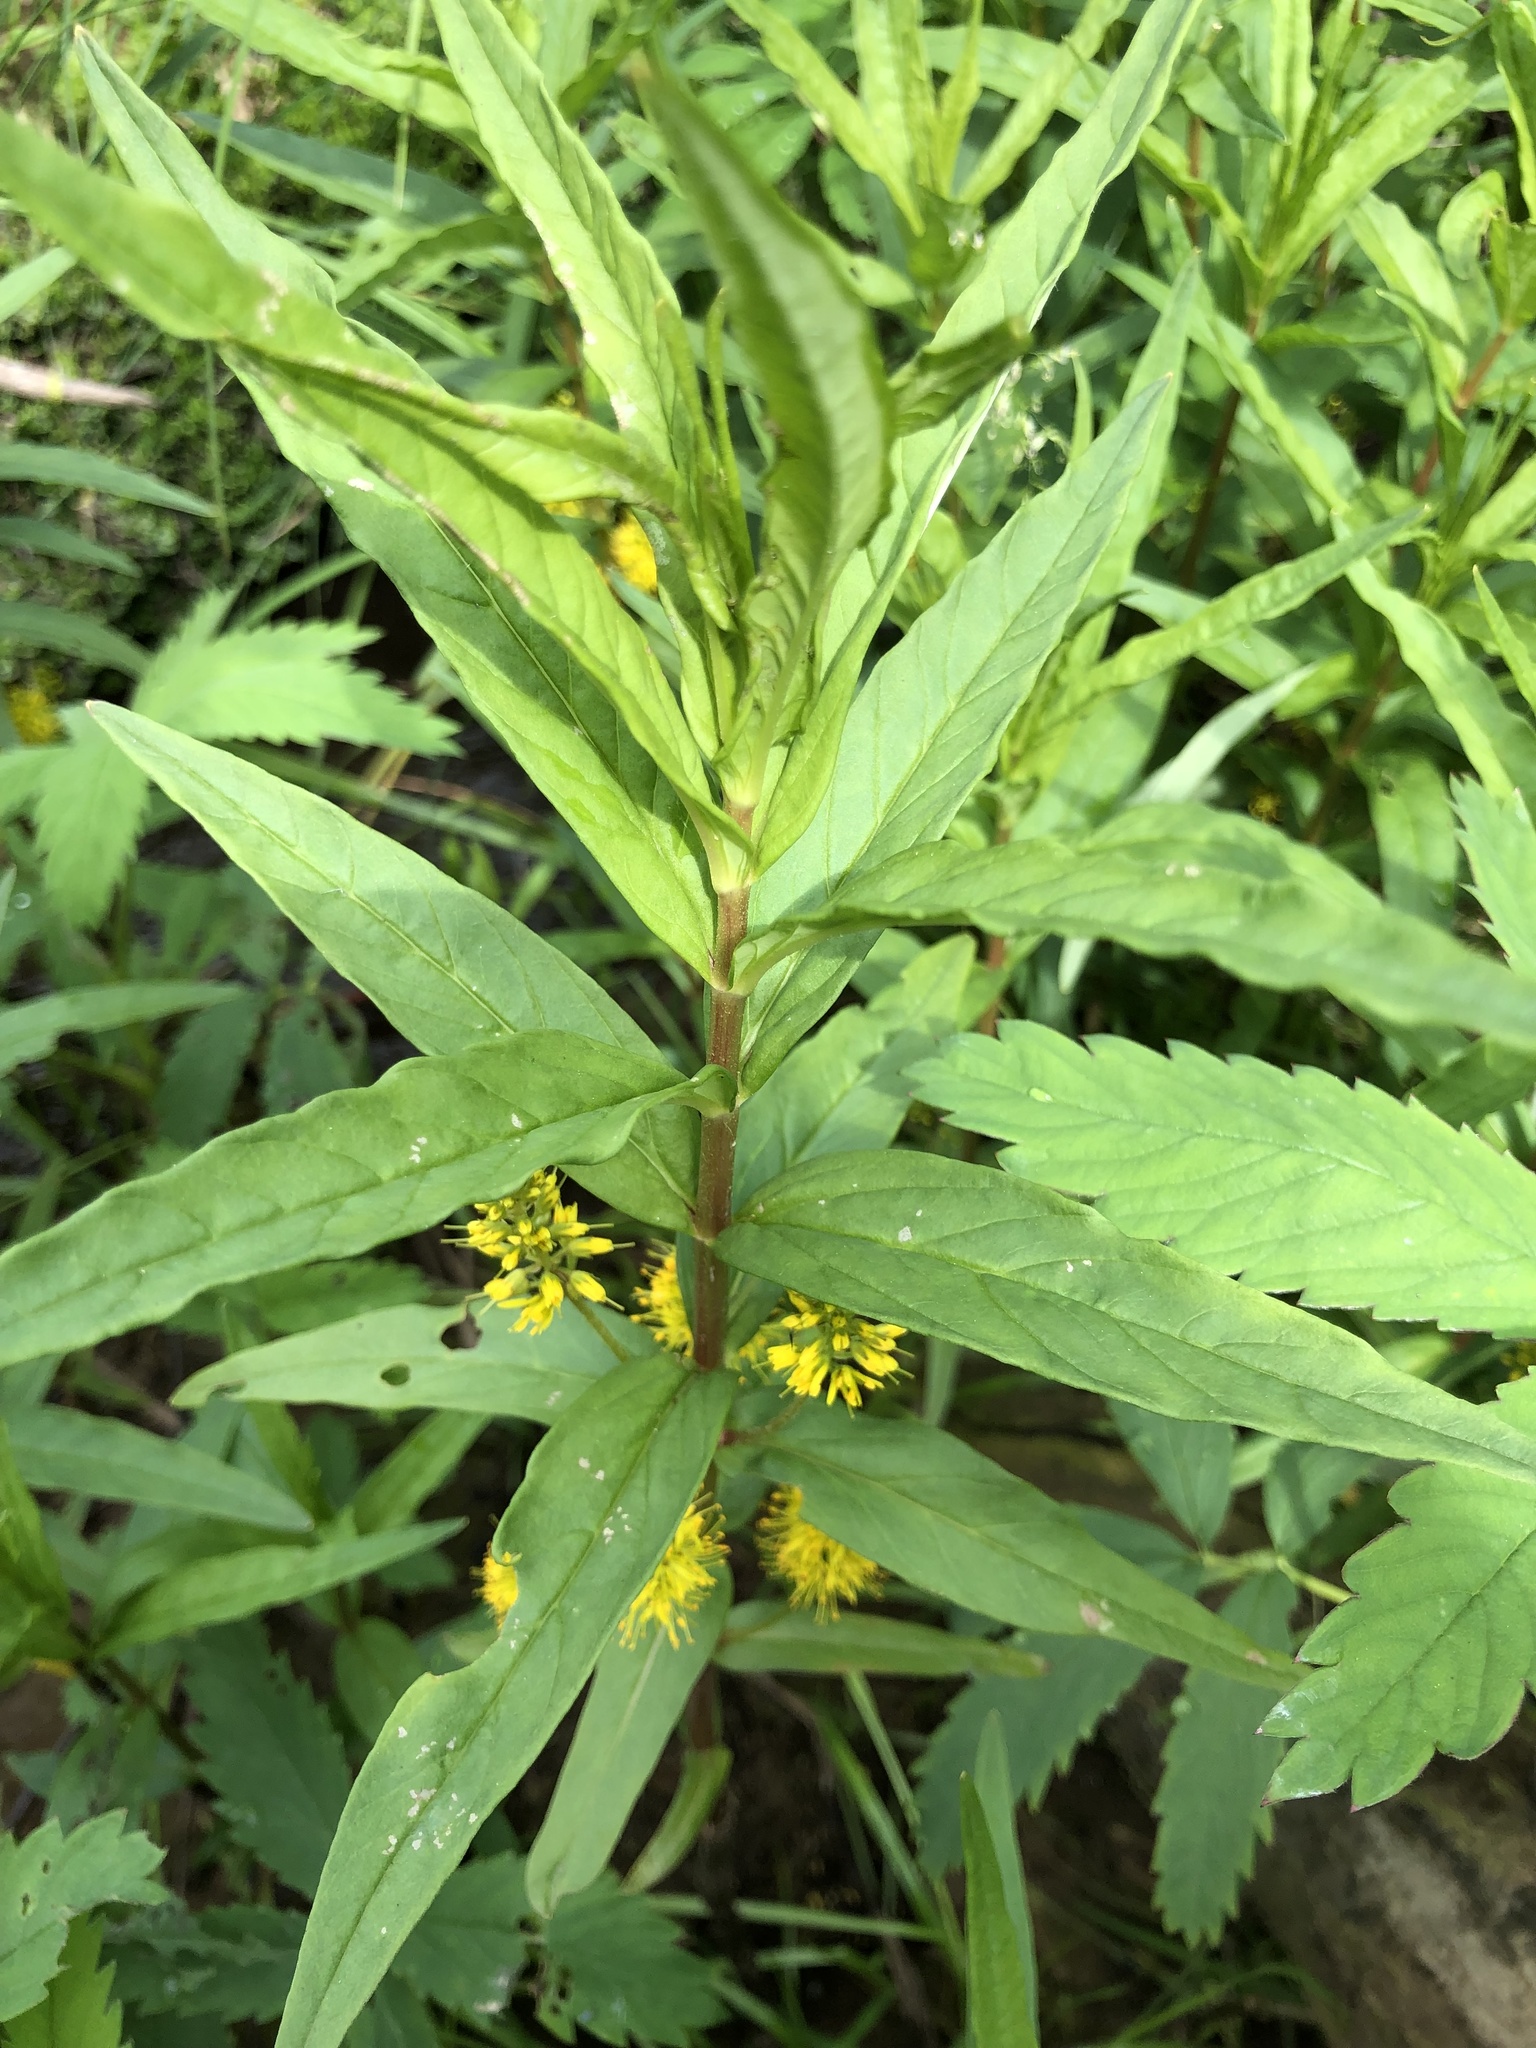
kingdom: Plantae
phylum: Tracheophyta
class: Magnoliopsida
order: Ericales
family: Primulaceae
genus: Lysimachia
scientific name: Lysimachia thyrsiflora
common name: Tufted loosestrife
